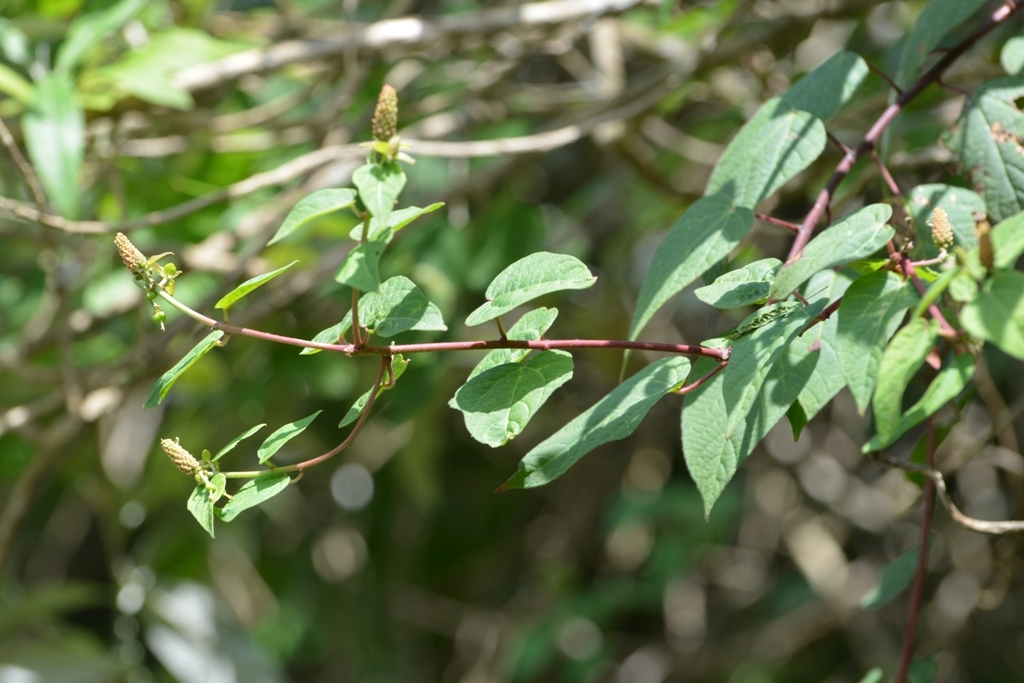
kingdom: Plantae
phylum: Tracheophyta
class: Magnoliopsida
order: Malpighiales
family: Euphorbiaceae
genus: Dalembertia
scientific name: Dalembertia triangularis
